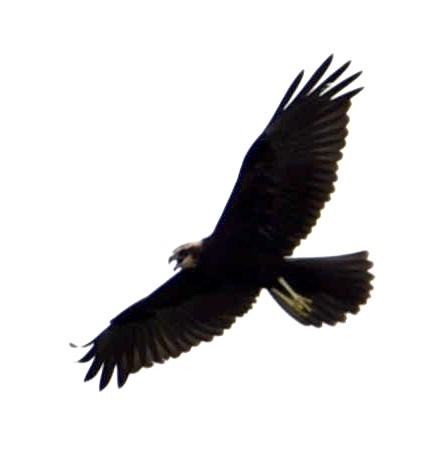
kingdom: Animalia
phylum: Chordata
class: Aves
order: Accipitriformes
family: Accipitridae
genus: Circus
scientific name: Circus aeruginosus
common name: Western marsh harrier
